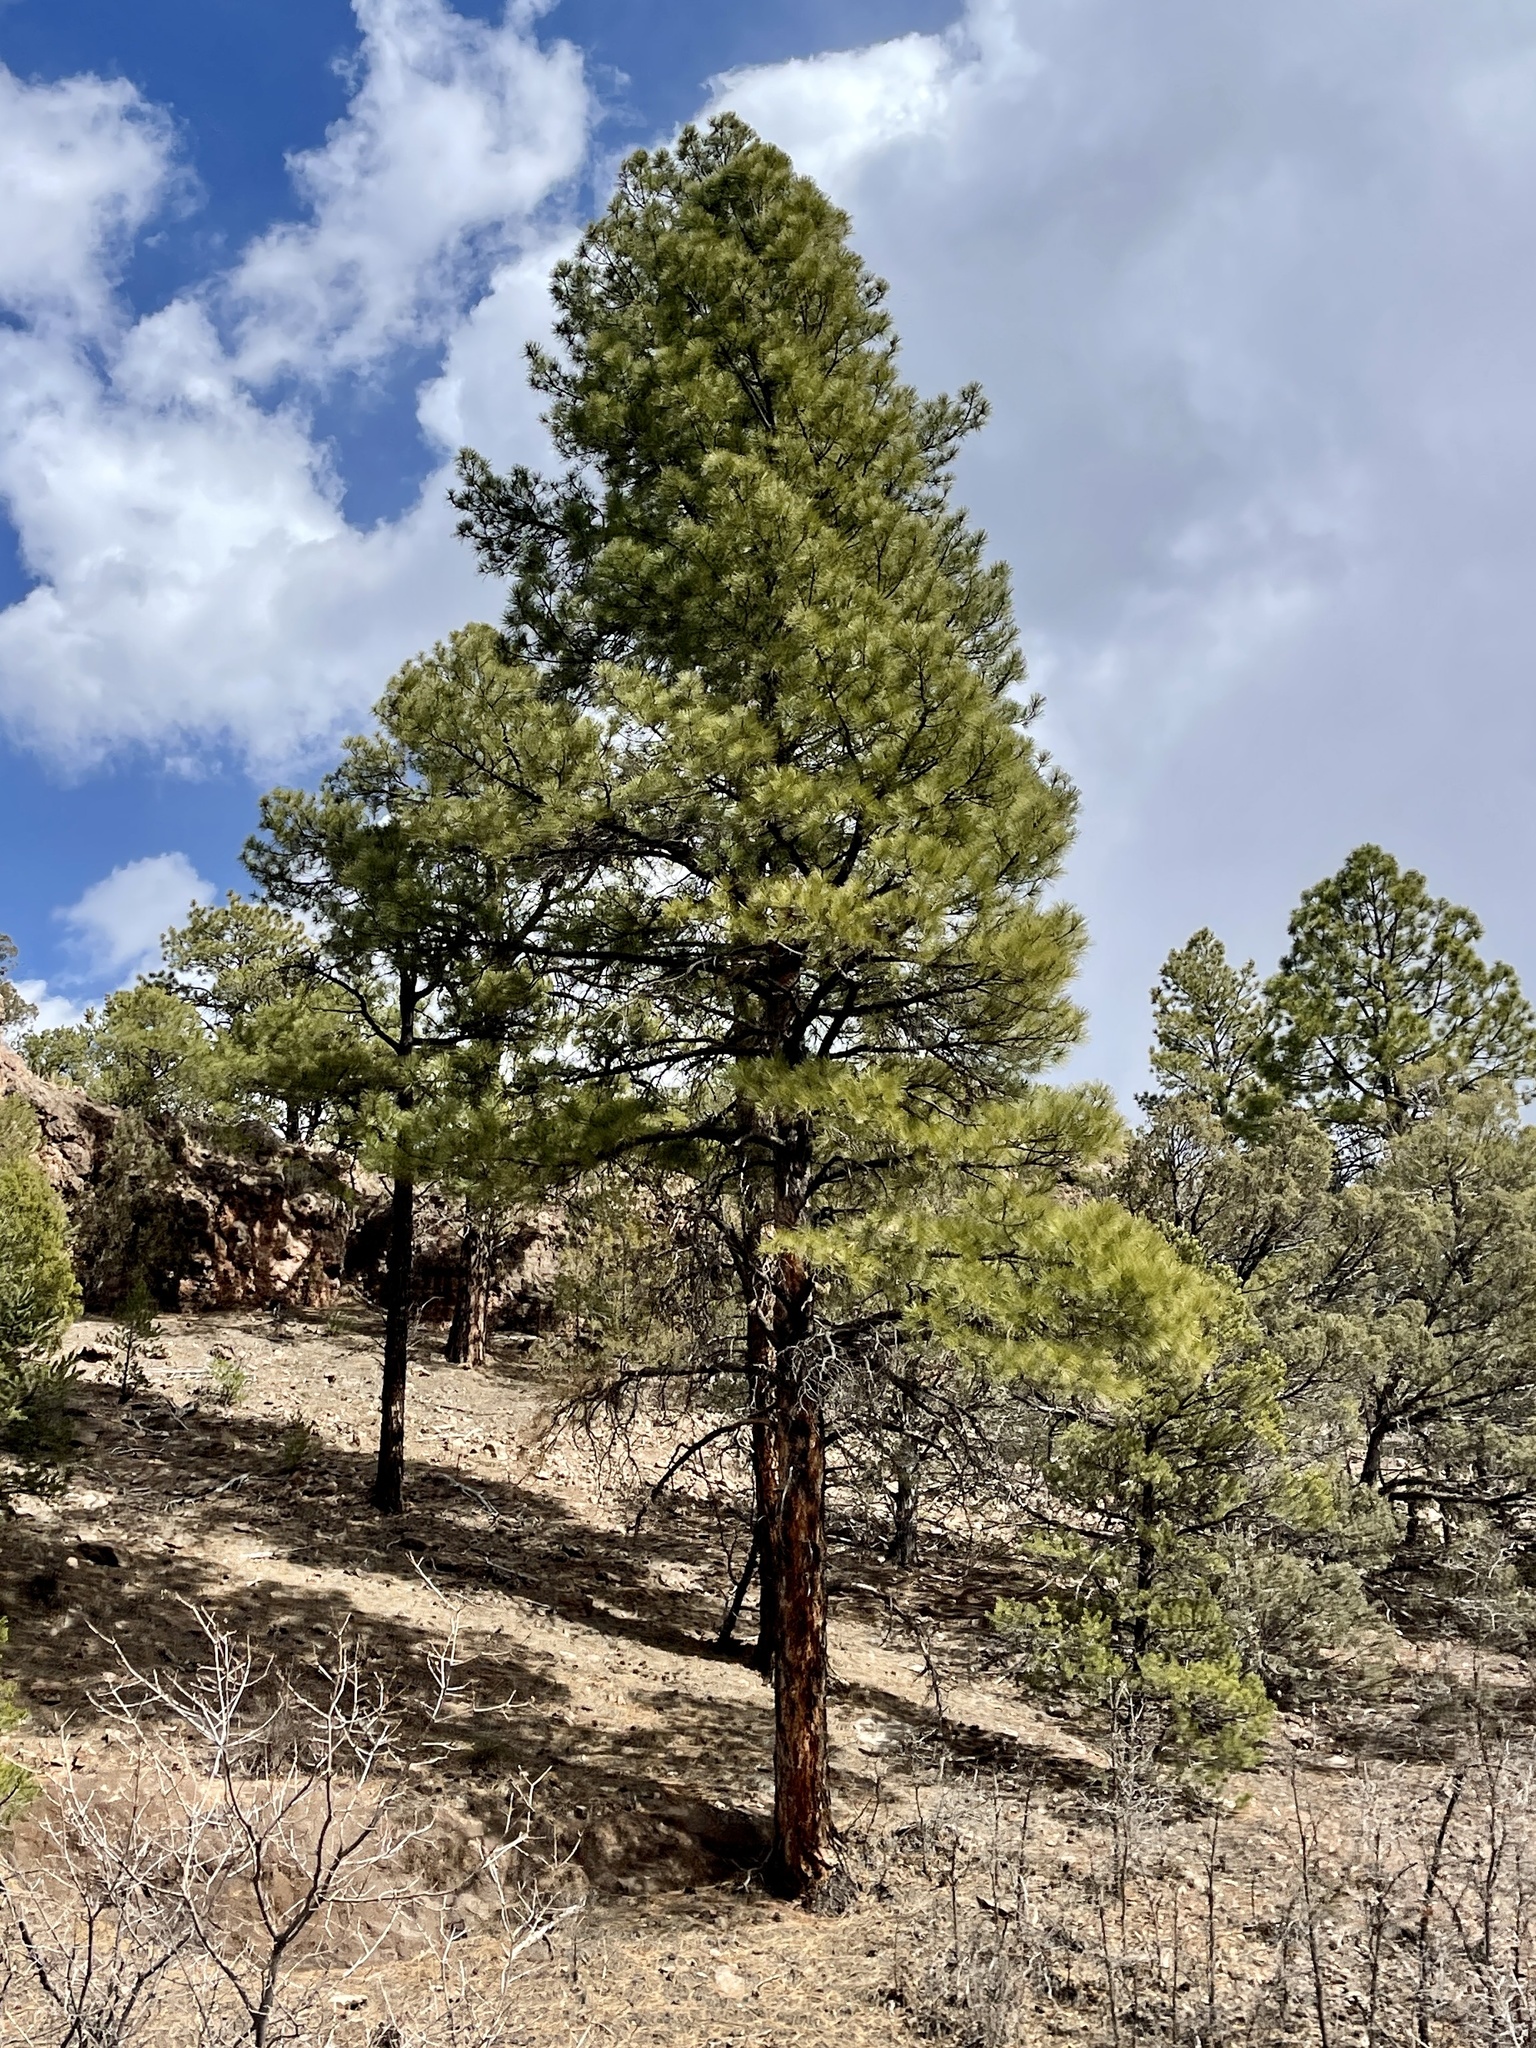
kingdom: Plantae
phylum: Tracheophyta
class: Pinopsida
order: Pinales
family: Pinaceae
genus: Pinus
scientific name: Pinus ponderosa
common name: Western yellow-pine
